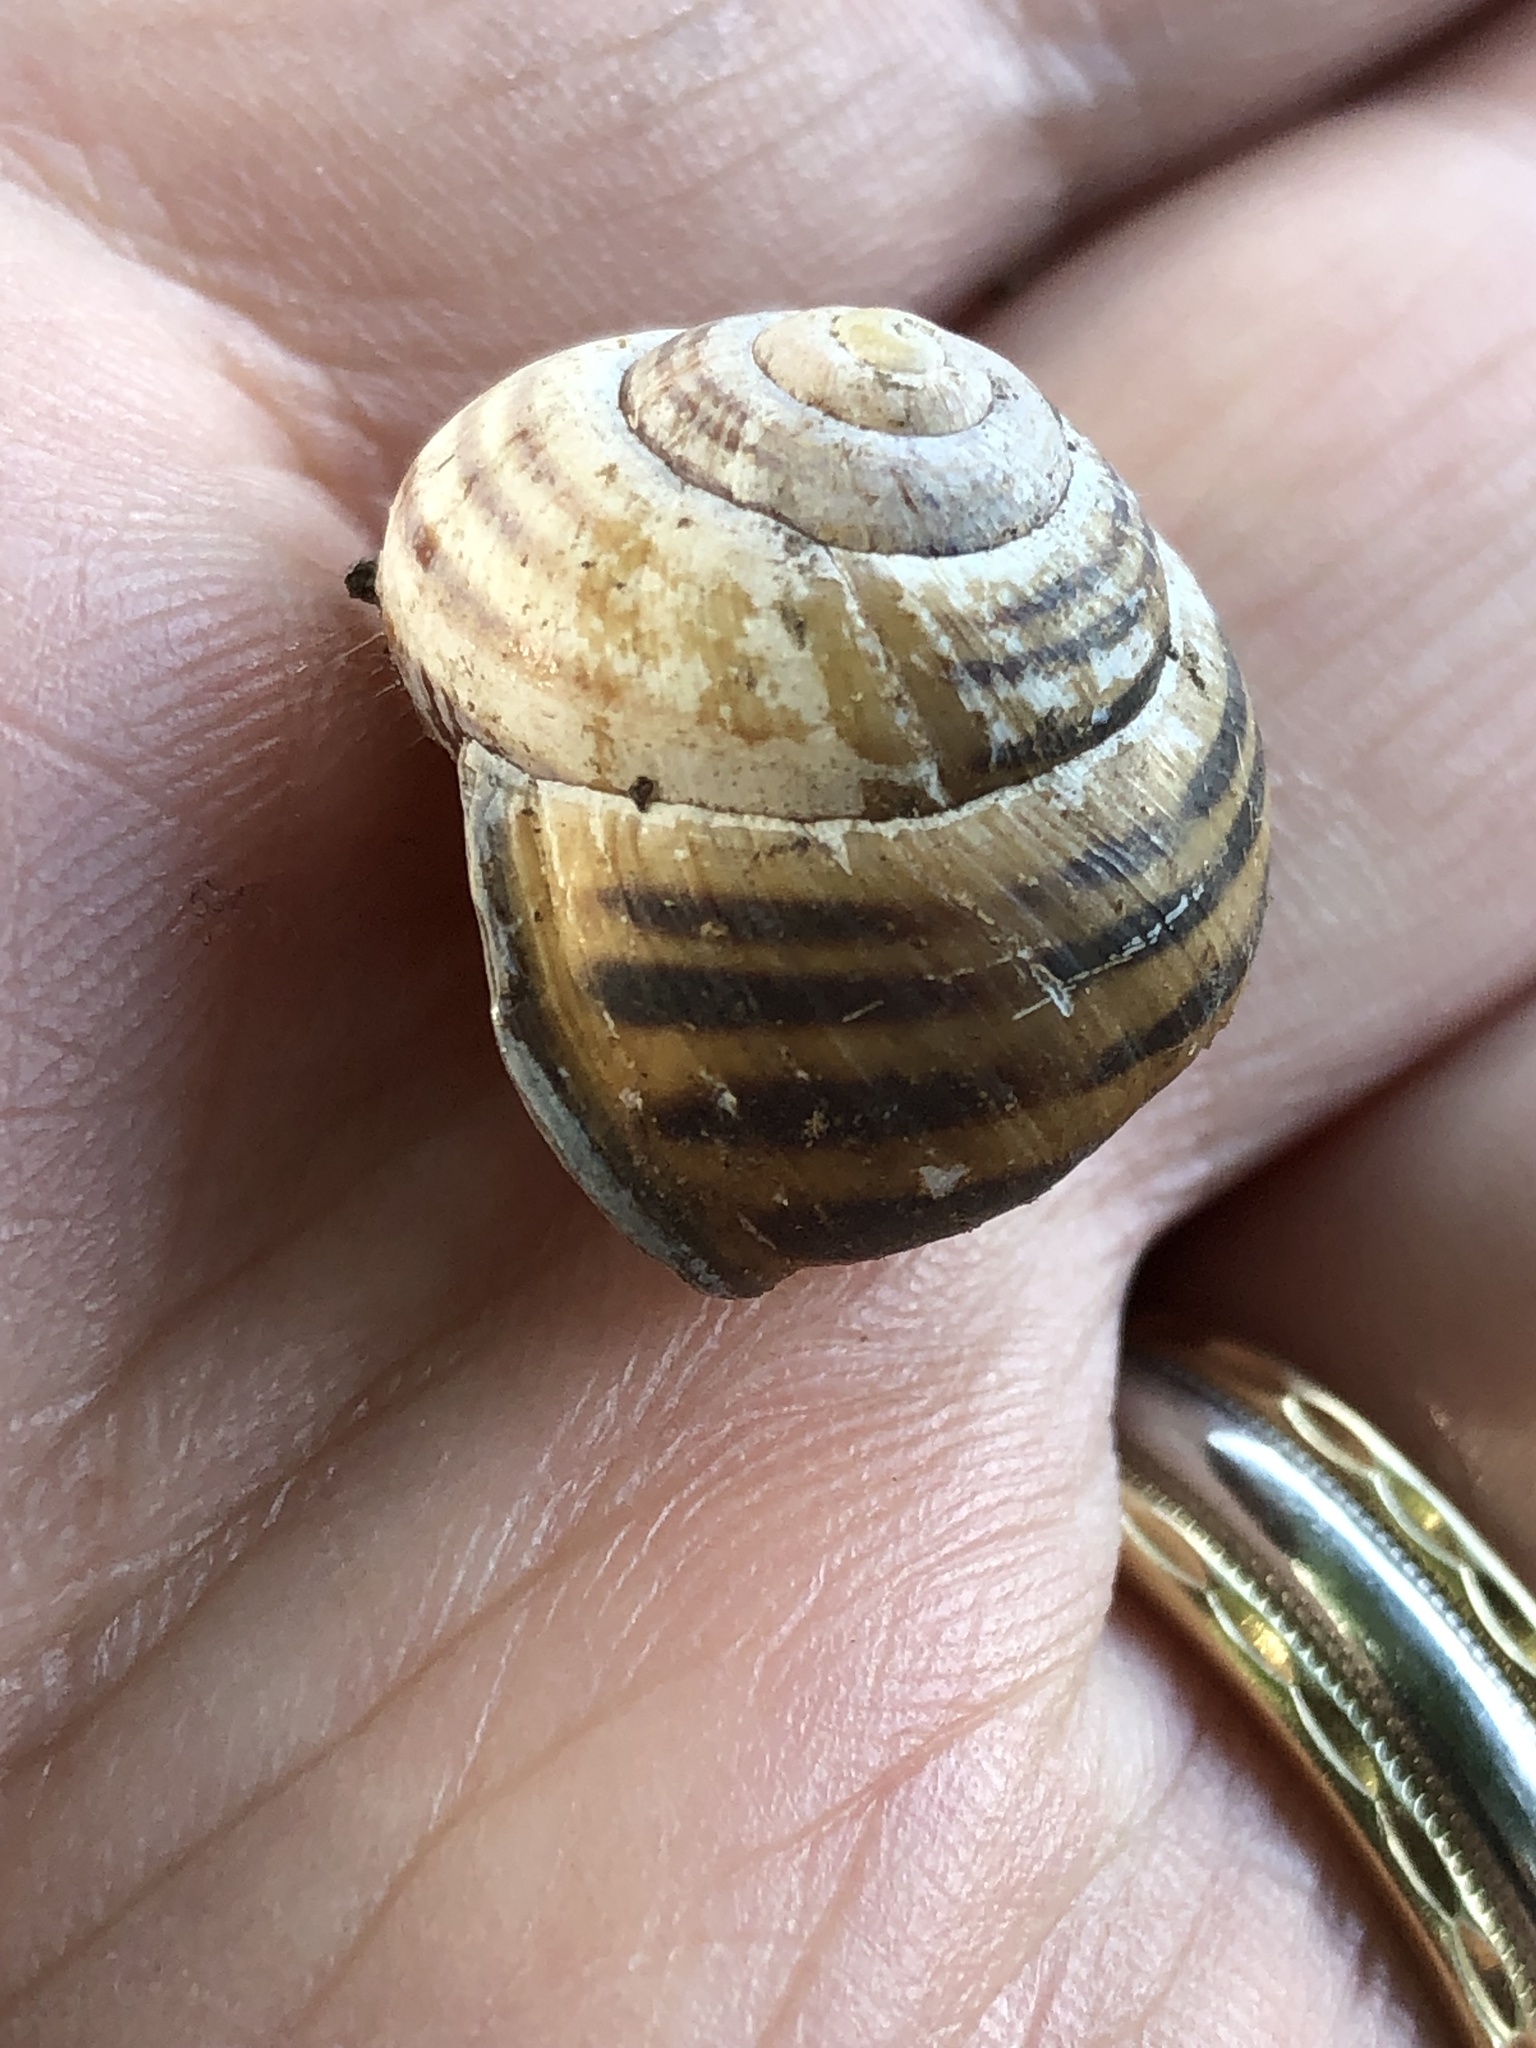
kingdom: Animalia
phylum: Mollusca
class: Gastropoda
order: Stylommatophora
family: Helicidae
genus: Cepaea
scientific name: Cepaea nemoralis
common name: Grovesnail
